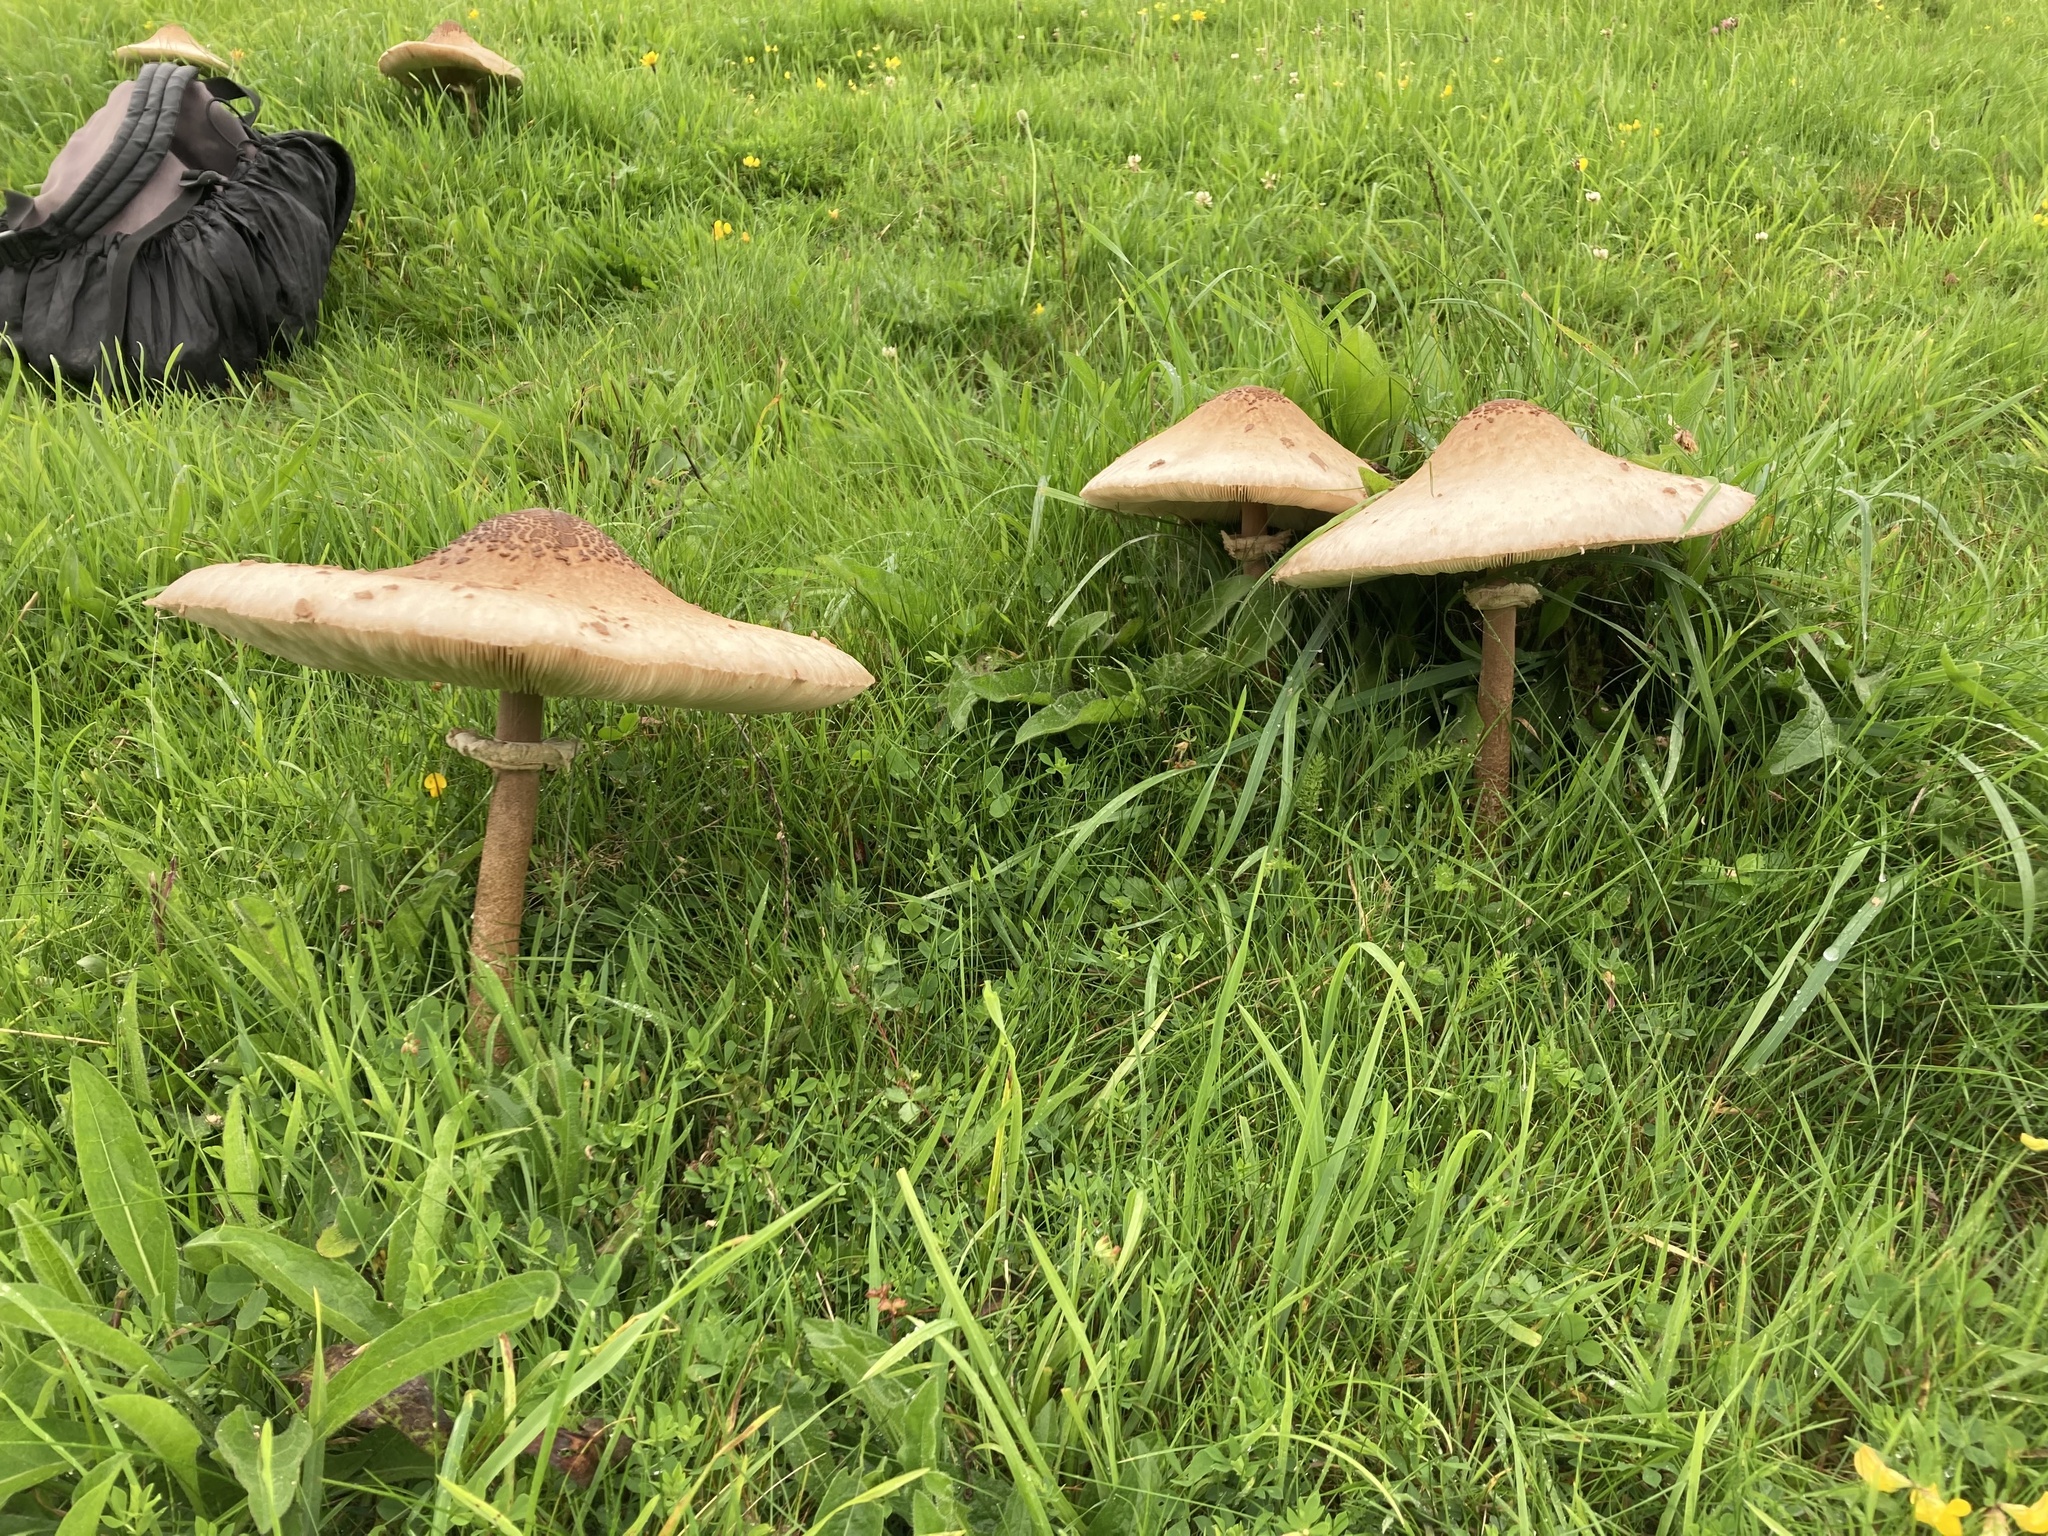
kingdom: Fungi
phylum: Basidiomycota
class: Agaricomycetes
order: Agaricales
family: Agaricaceae
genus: Macrolepiota
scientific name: Macrolepiota procera
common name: Parasol
